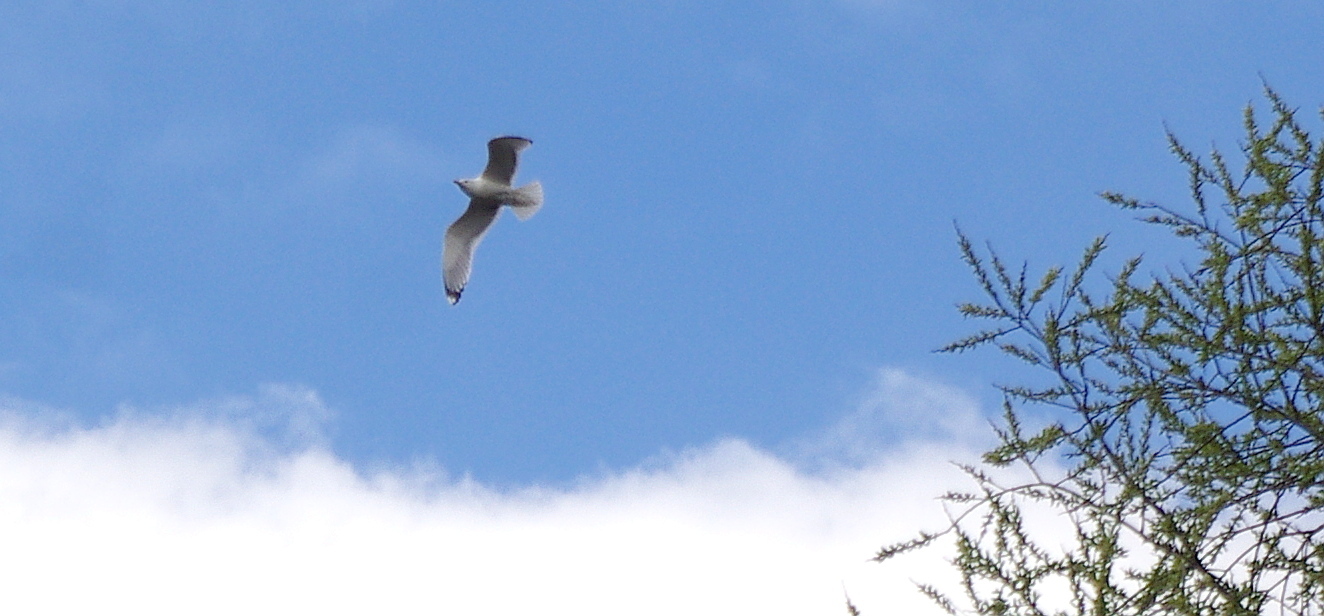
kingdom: Animalia
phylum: Chordata
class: Aves
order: Charadriiformes
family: Laridae
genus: Larus
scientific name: Larus canus
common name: Mew gull
